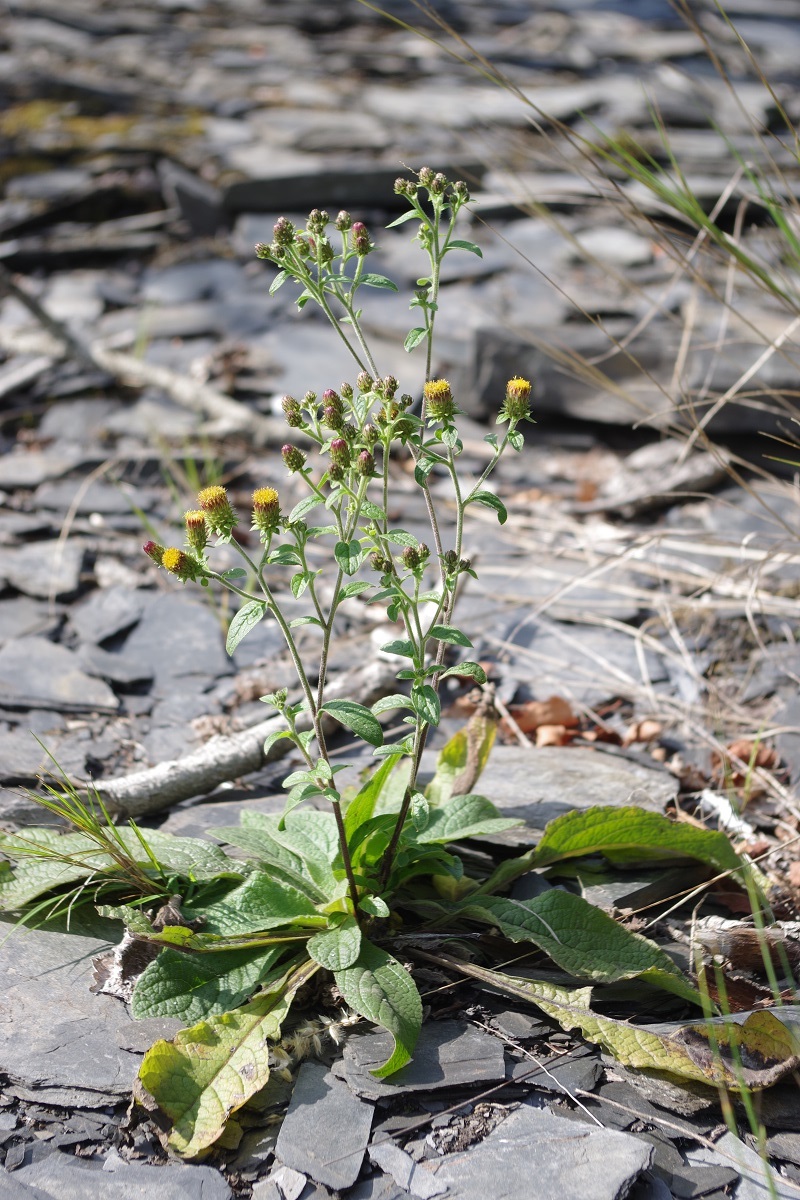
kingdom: Plantae
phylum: Tracheophyta
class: Magnoliopsida
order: Asterales
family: Asteraceae
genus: Pentanema
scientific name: Pentanema squarrosum
